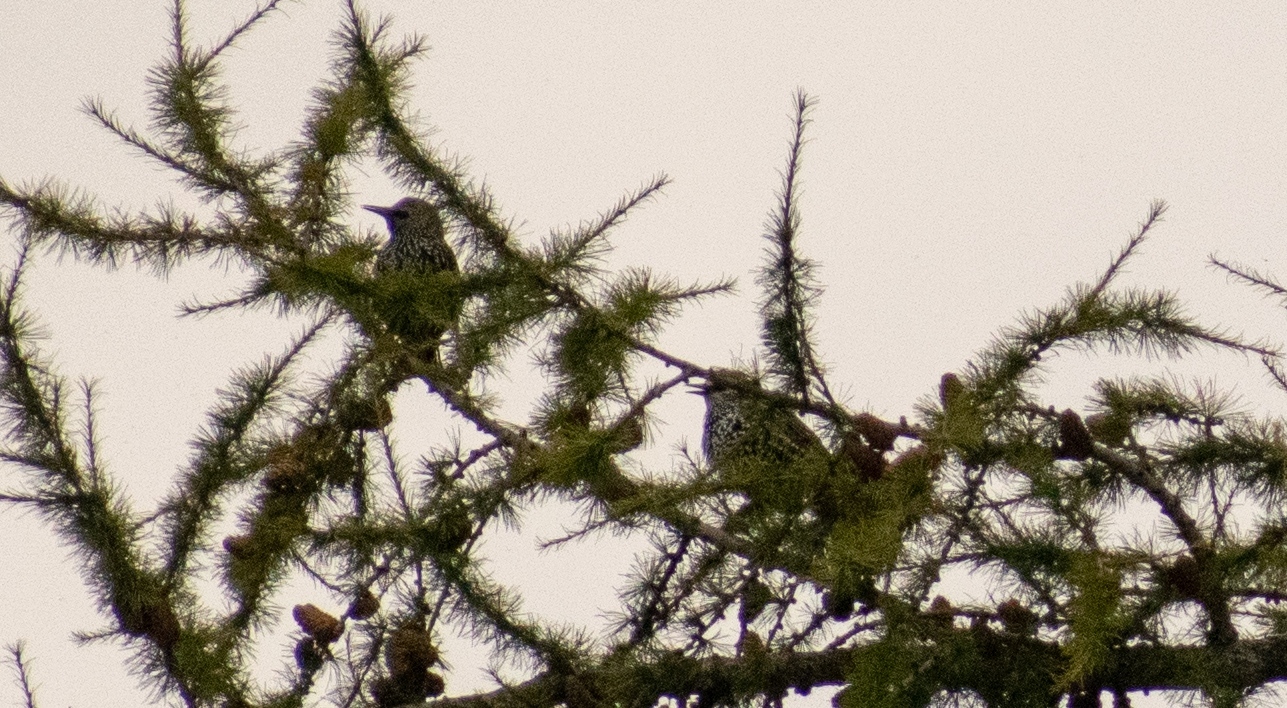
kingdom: Animalia
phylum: Chordata
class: Aves
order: Passeriformes
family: Sturnidae
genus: Sturnus
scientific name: Sturnus vulgaris
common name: Common starling
